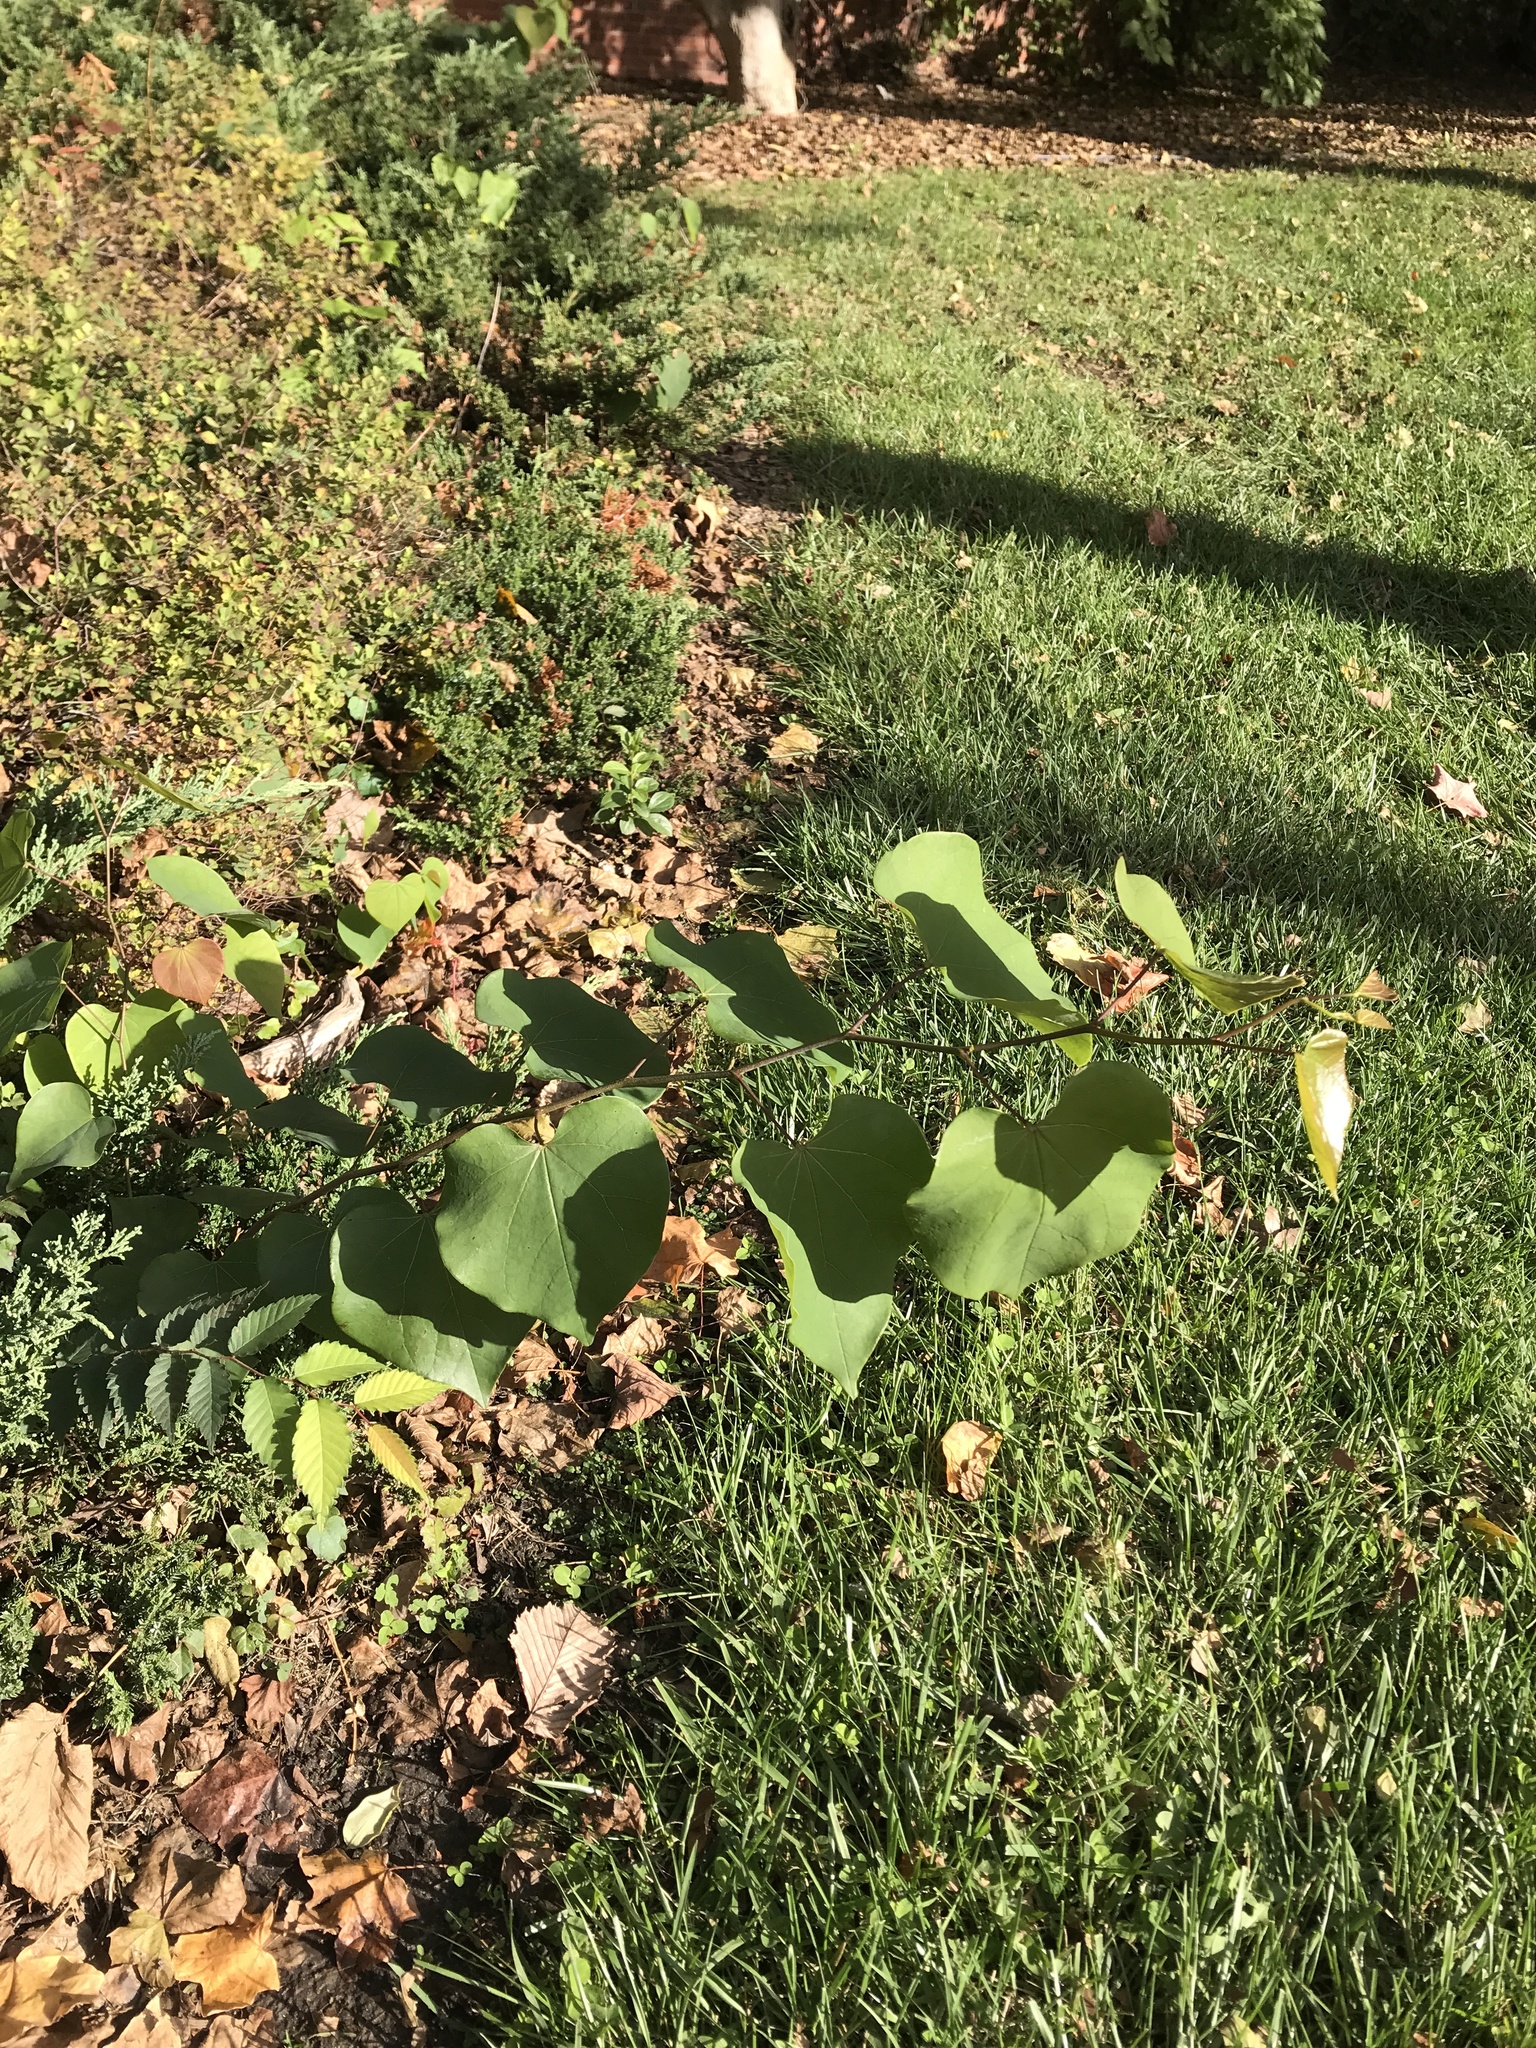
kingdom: Plantae
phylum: Tracheophyta
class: Magnoliopsida
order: Fabales
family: Fabaceae
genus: Cercis
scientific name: Cercis canadensis
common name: Eastern redbud
